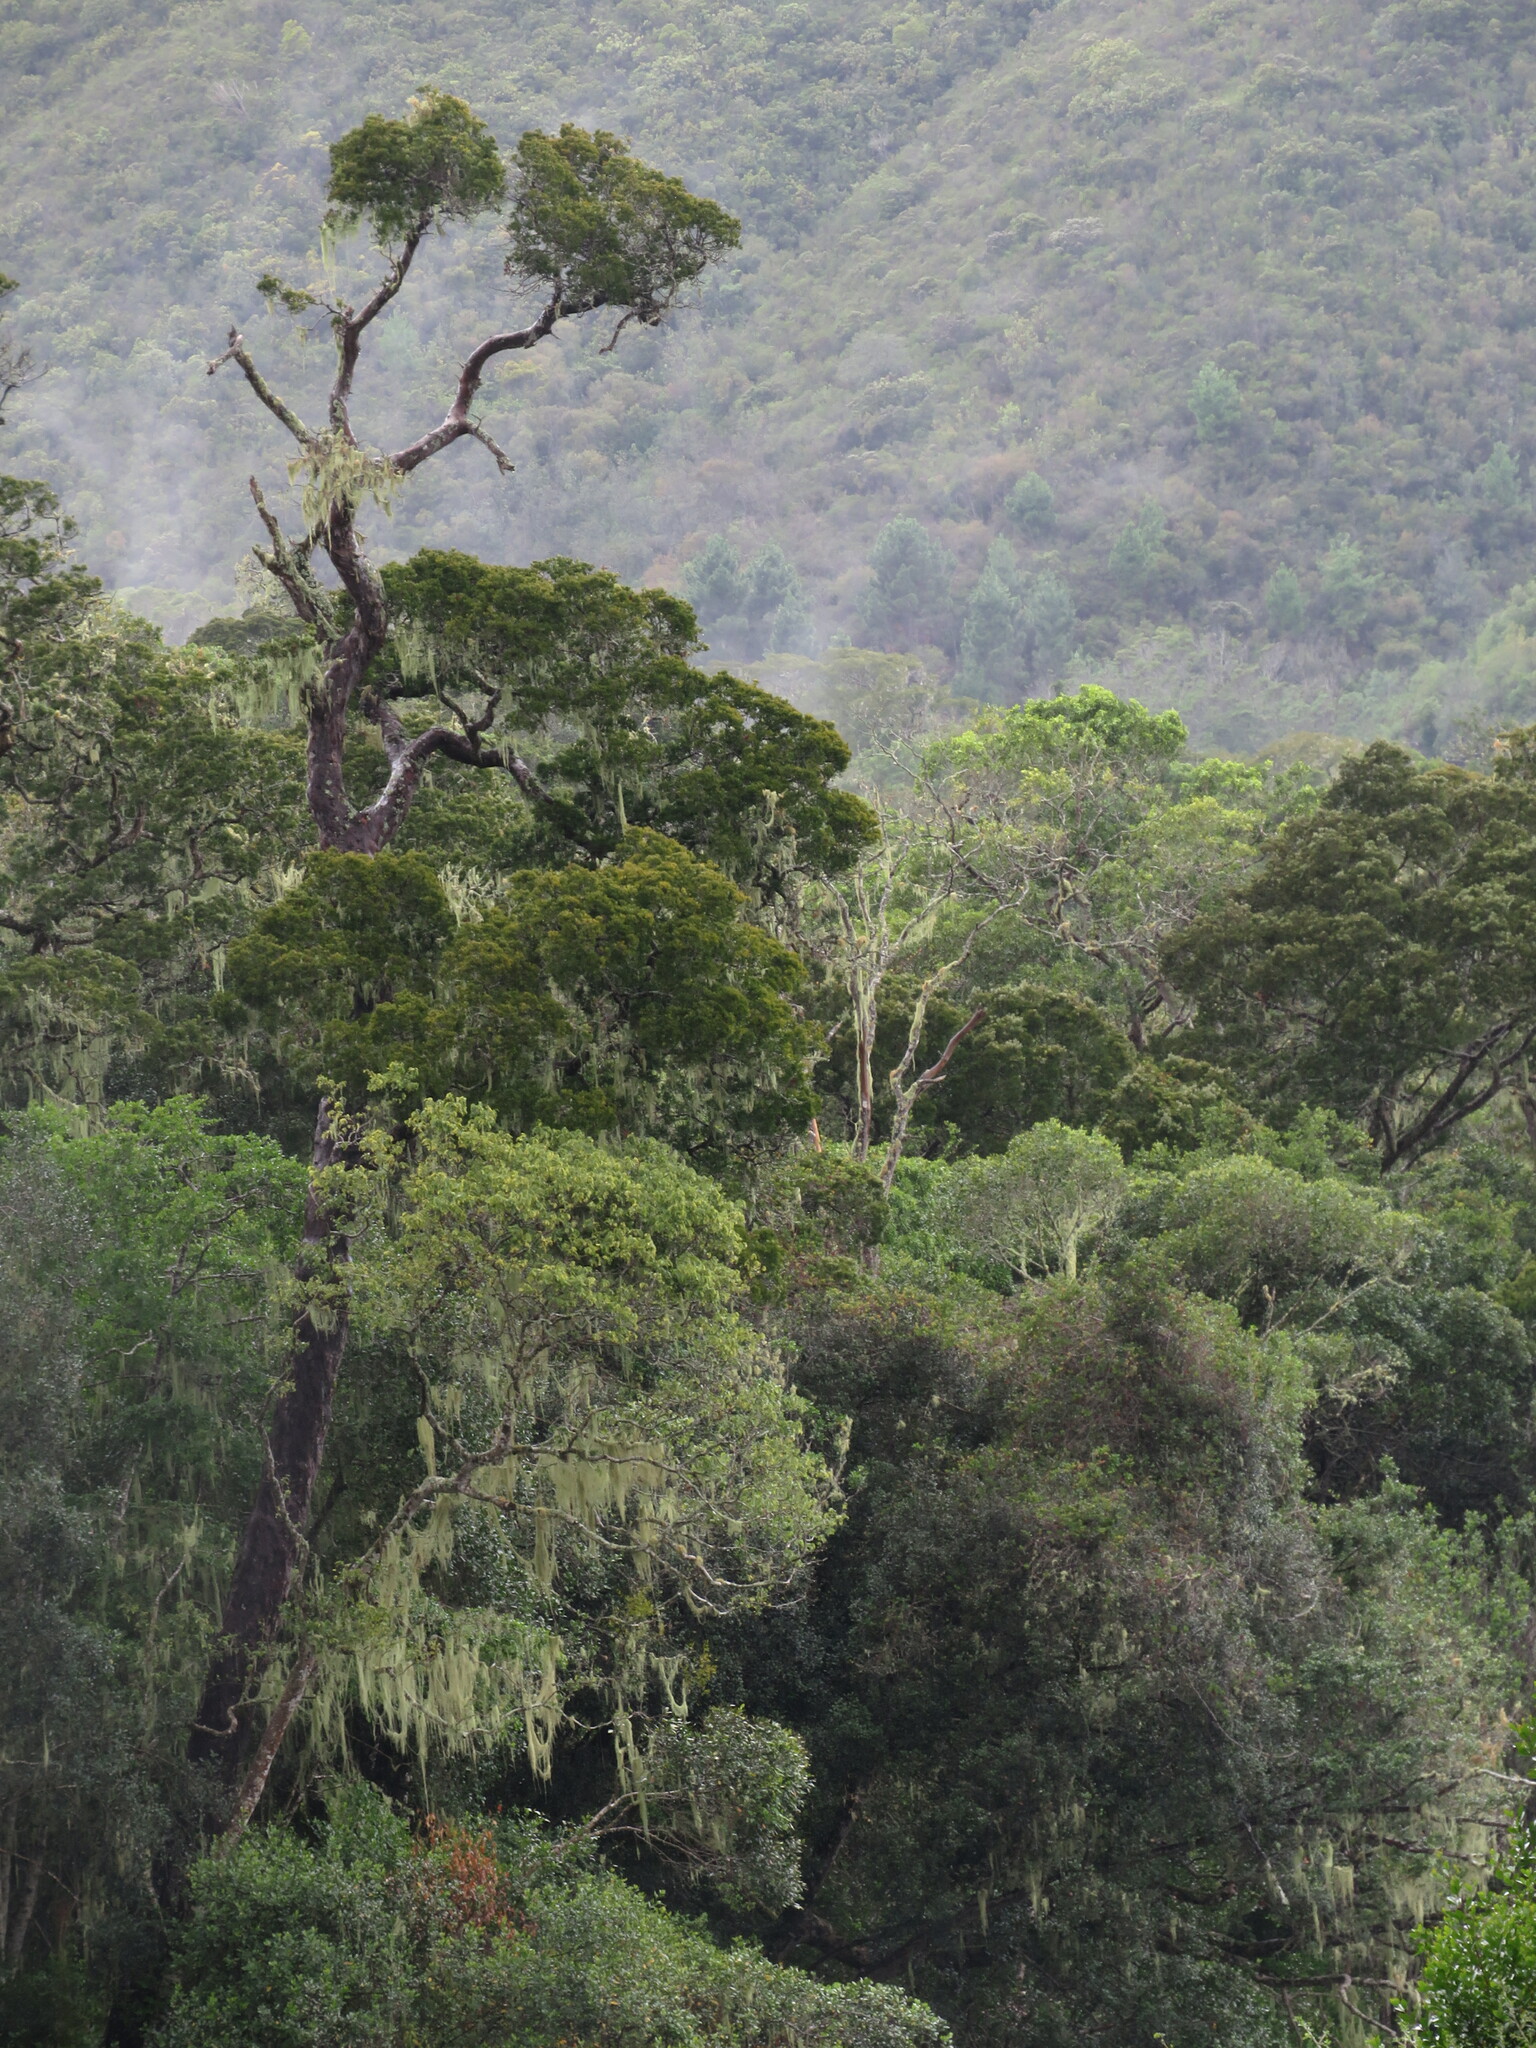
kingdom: Plantae
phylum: Tracheophyta
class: Pinopsida
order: Pinales
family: Podocarpaceae
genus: Afrocarpus
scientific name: Afrocarpus falcatus
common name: Bastard yellowwood
